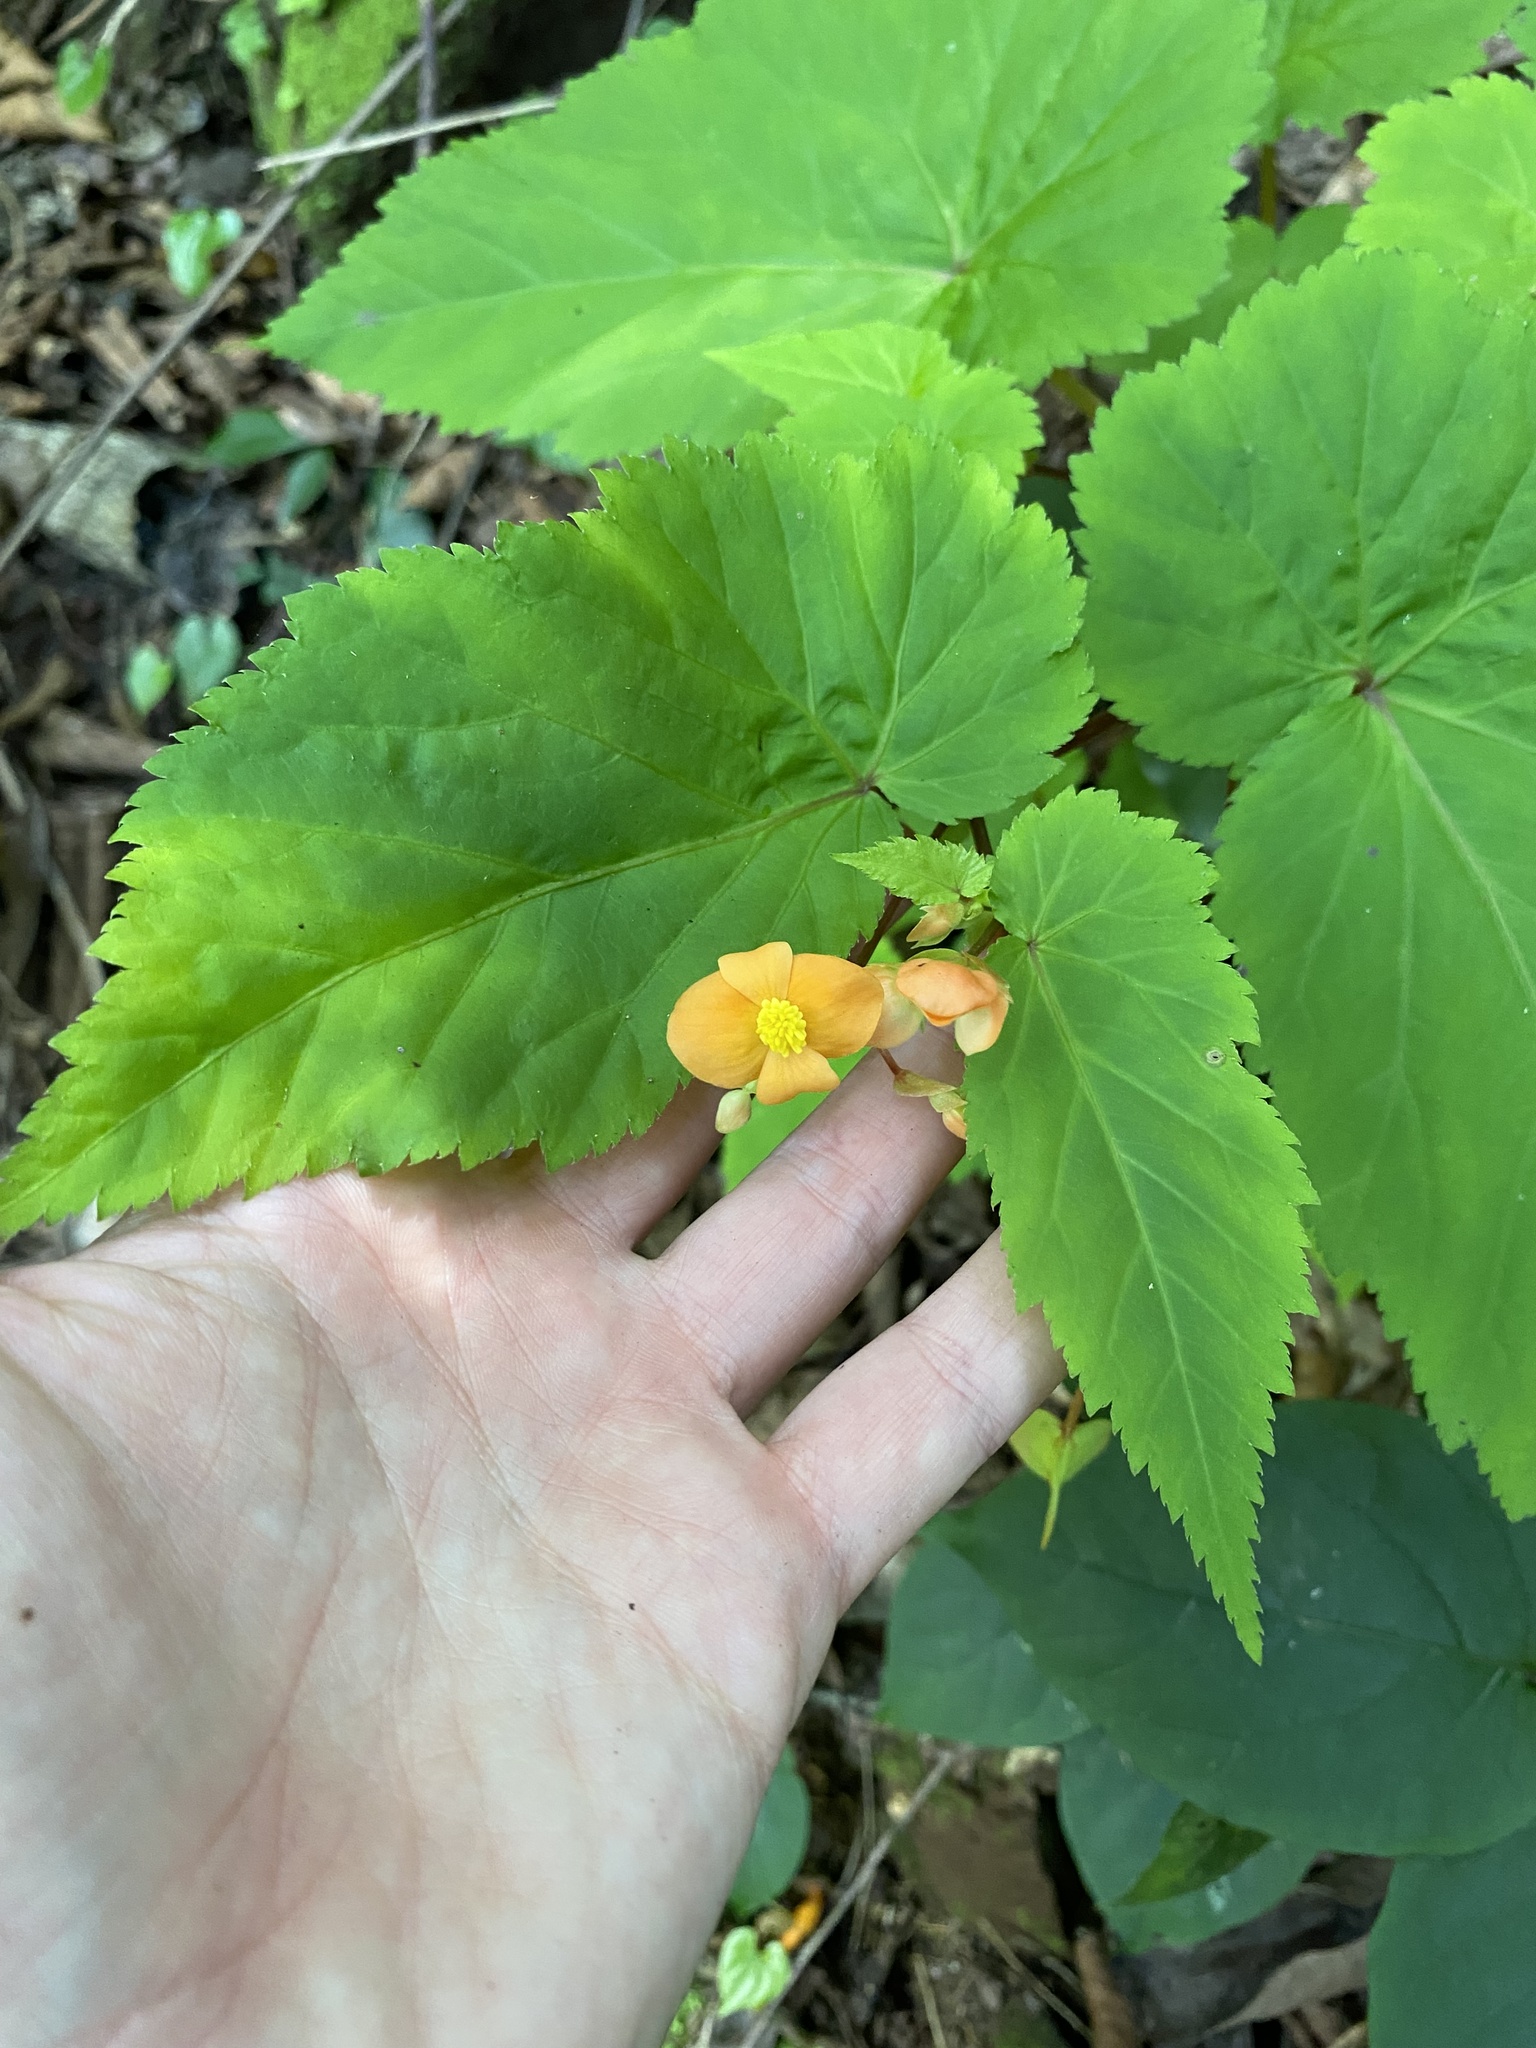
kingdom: Plantae
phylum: Tracheophyta
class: Magnoliopsida
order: Cucurbitales
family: Begoniaceae
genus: Begonia
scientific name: Begonia sutherlandii
